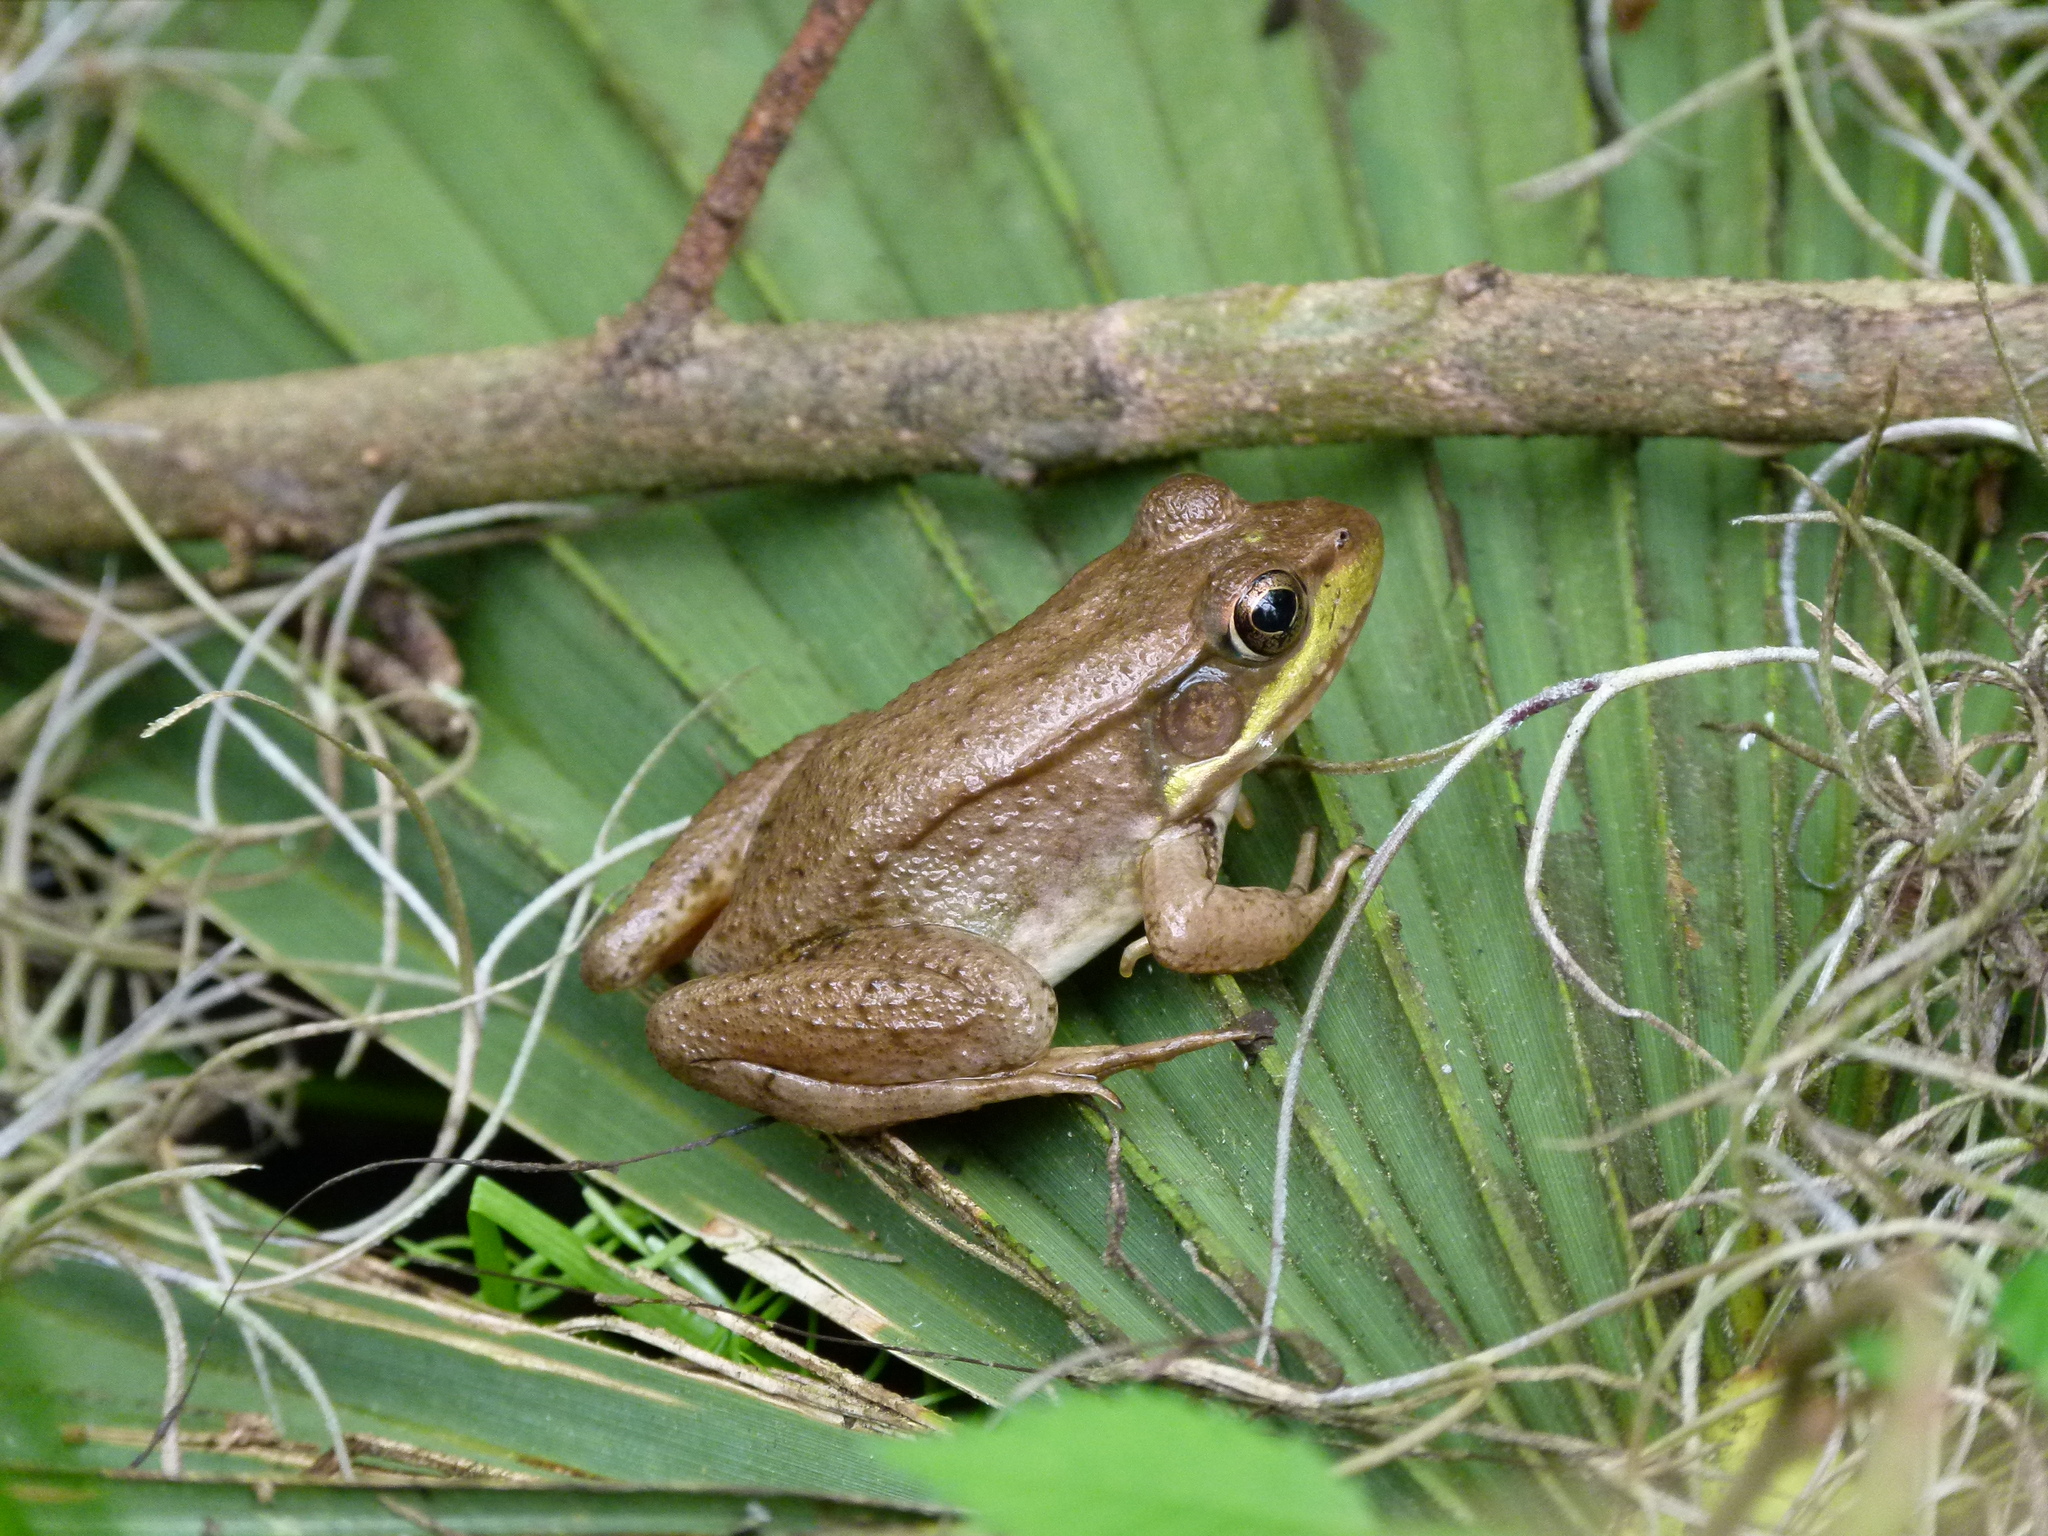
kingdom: Animalia
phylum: Chordata
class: Amphibia
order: Anura
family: Ranidae
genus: Lithobates
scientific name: Lithobates clamitans
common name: Green frog
